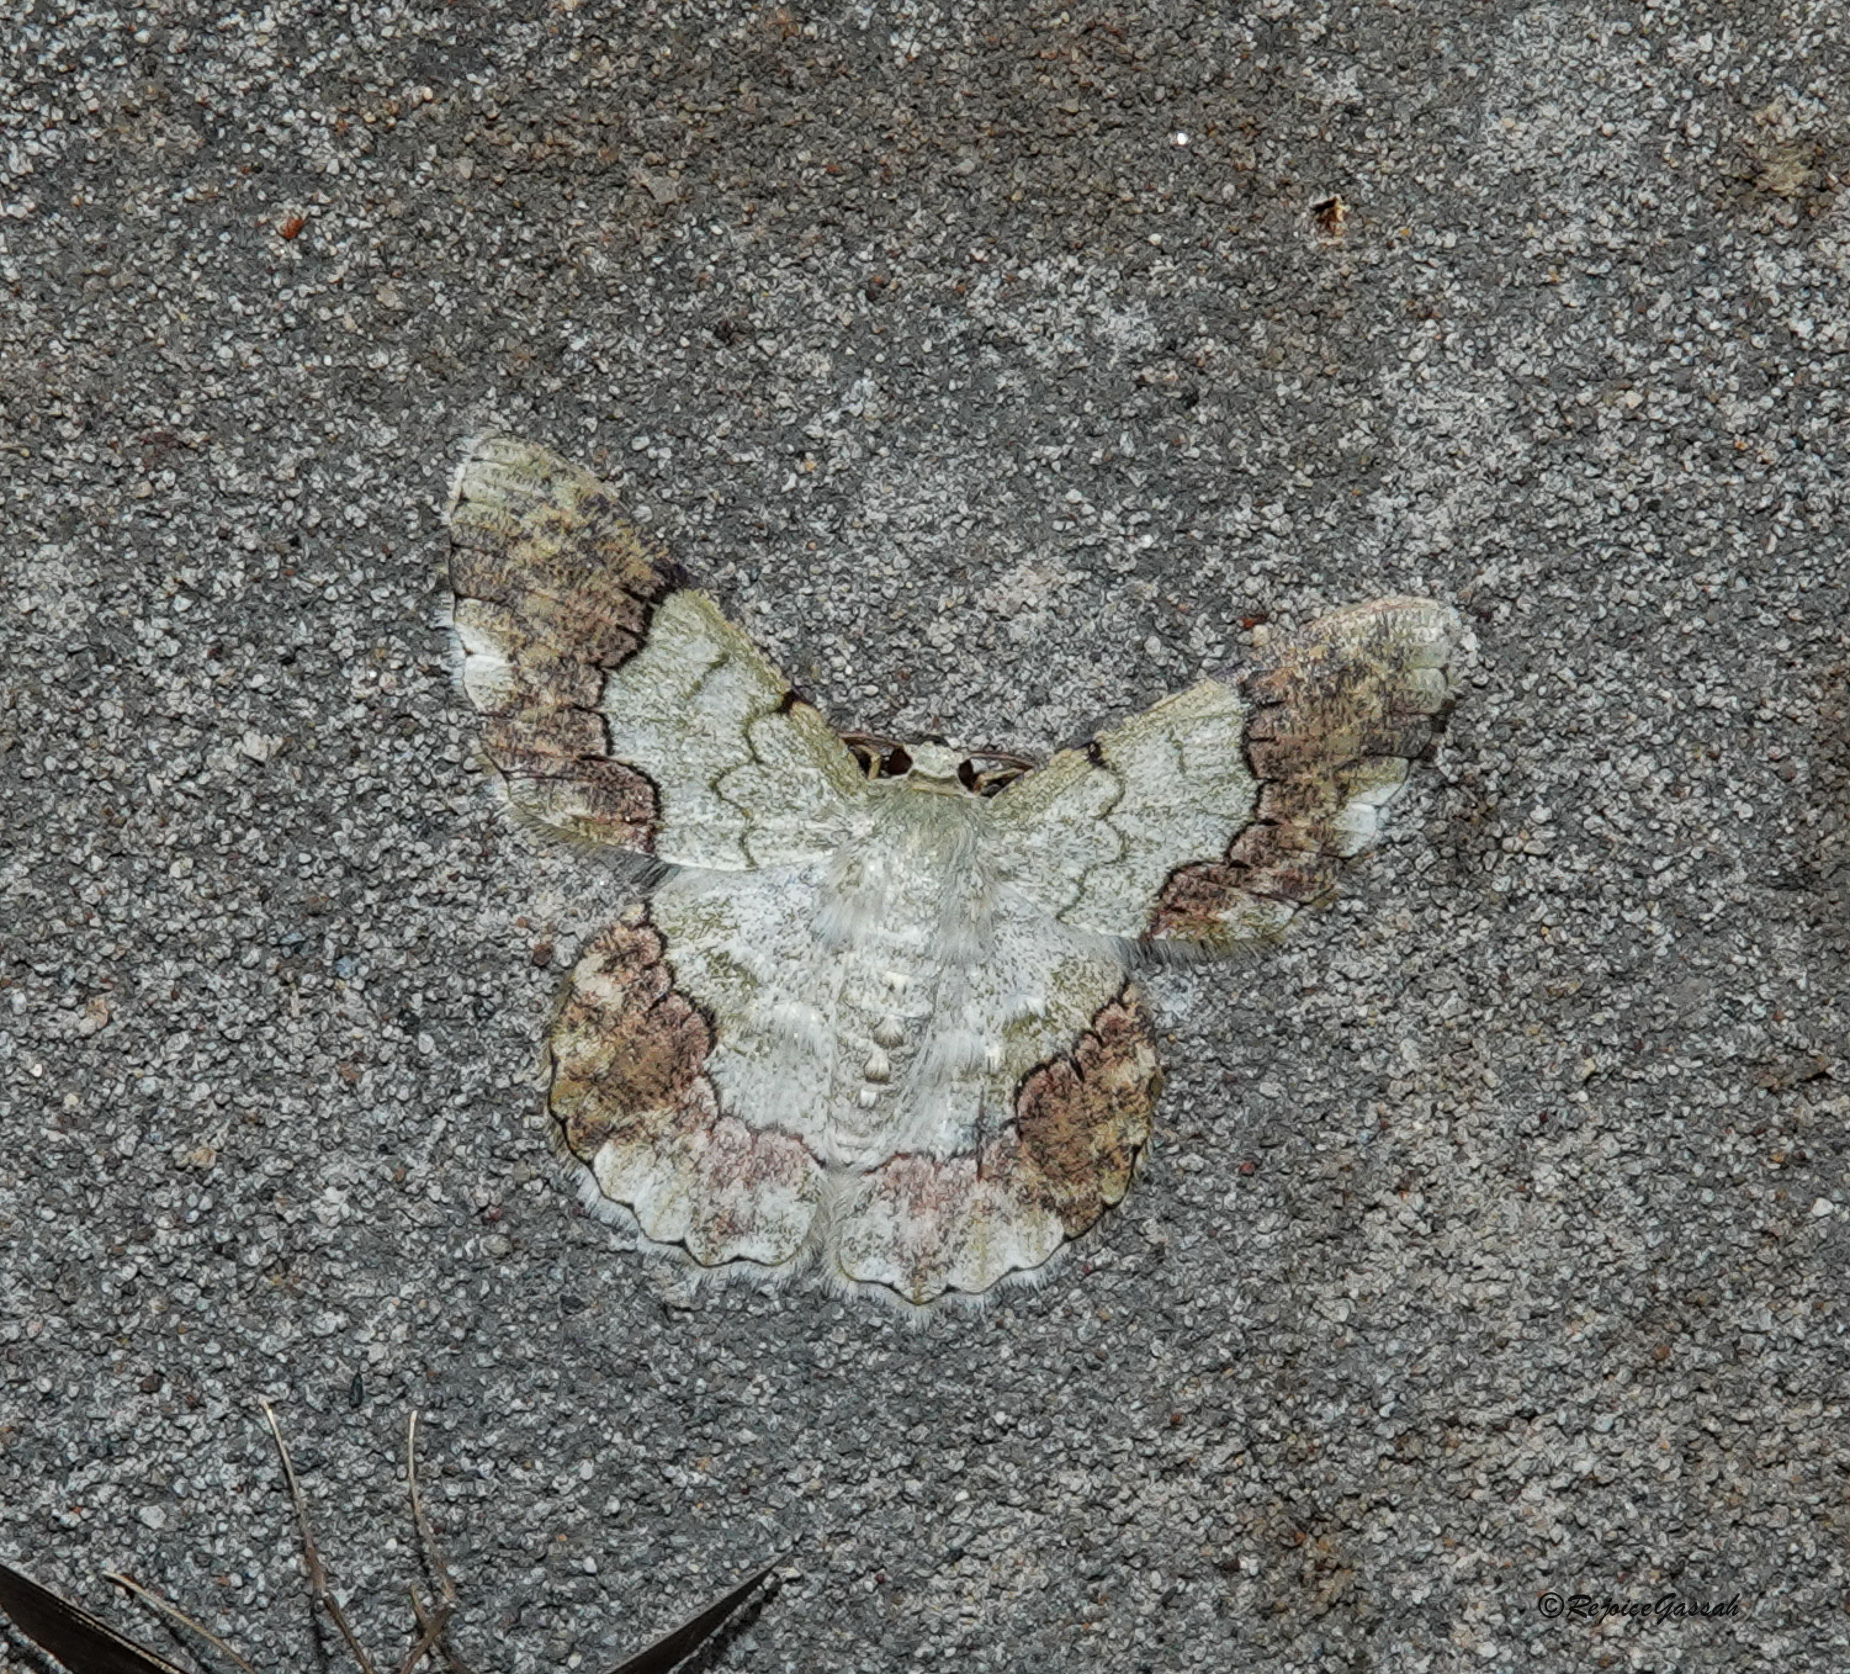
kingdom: Animalia
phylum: Arthropoda
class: Insecta
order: Lepidoptera
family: Geometridae
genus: Pingasa
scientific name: Pingasa ruginaria
